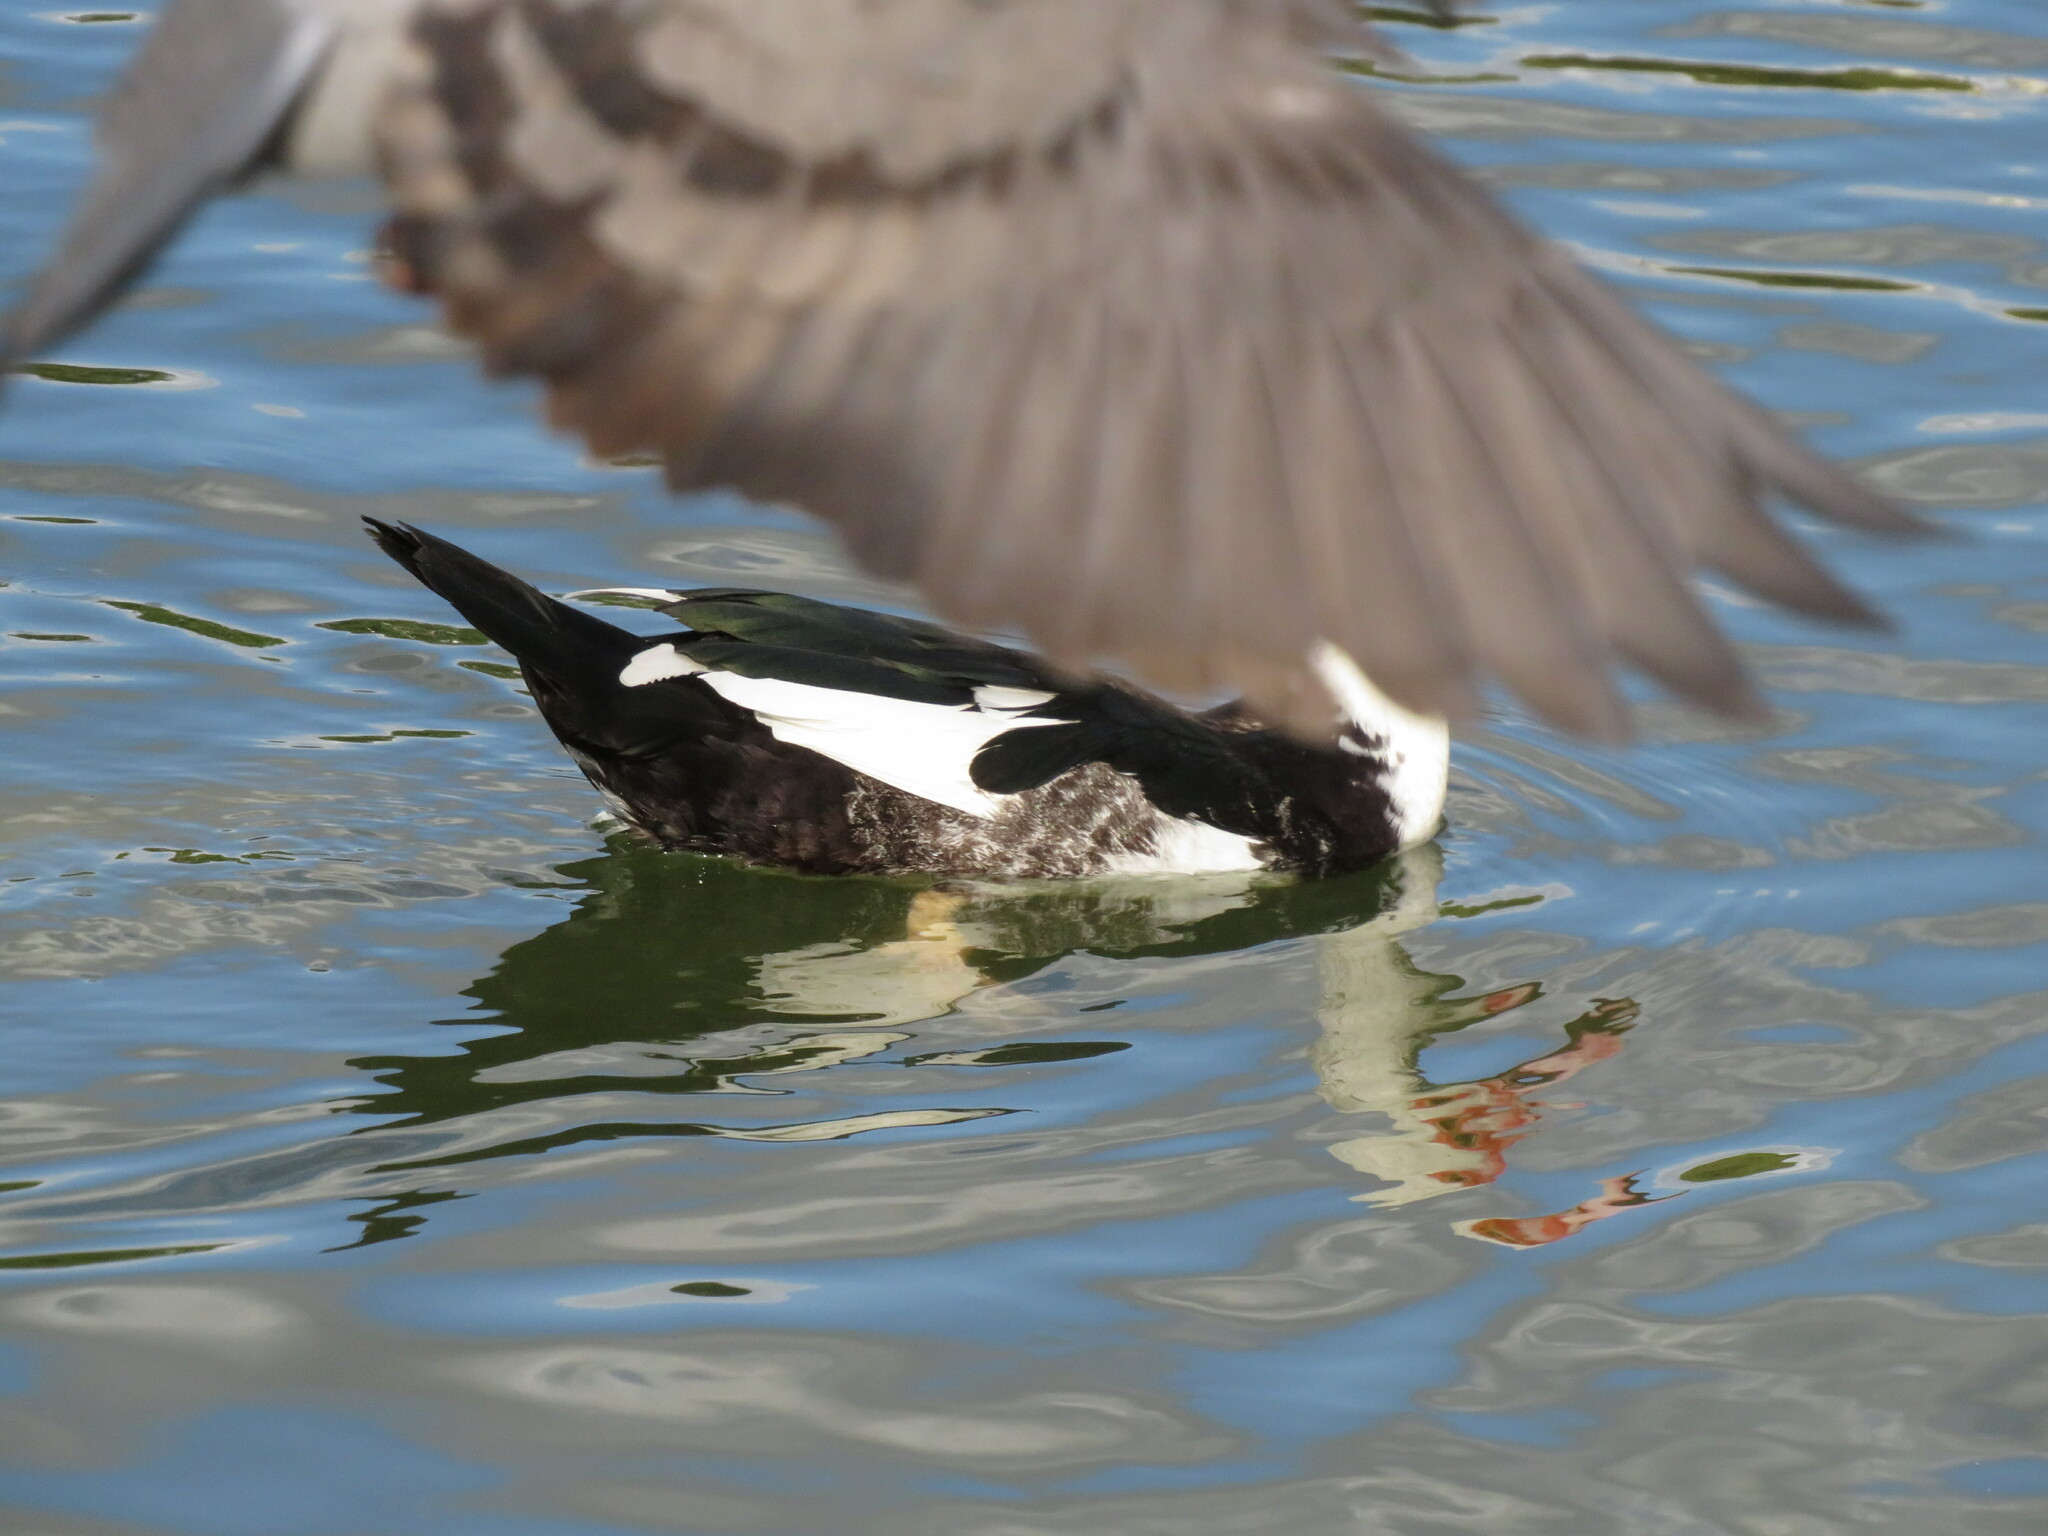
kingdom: Animalia
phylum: Chordata
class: Aves
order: Anseriformes
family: Anatidae
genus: Cairina
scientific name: Cairina moschata
